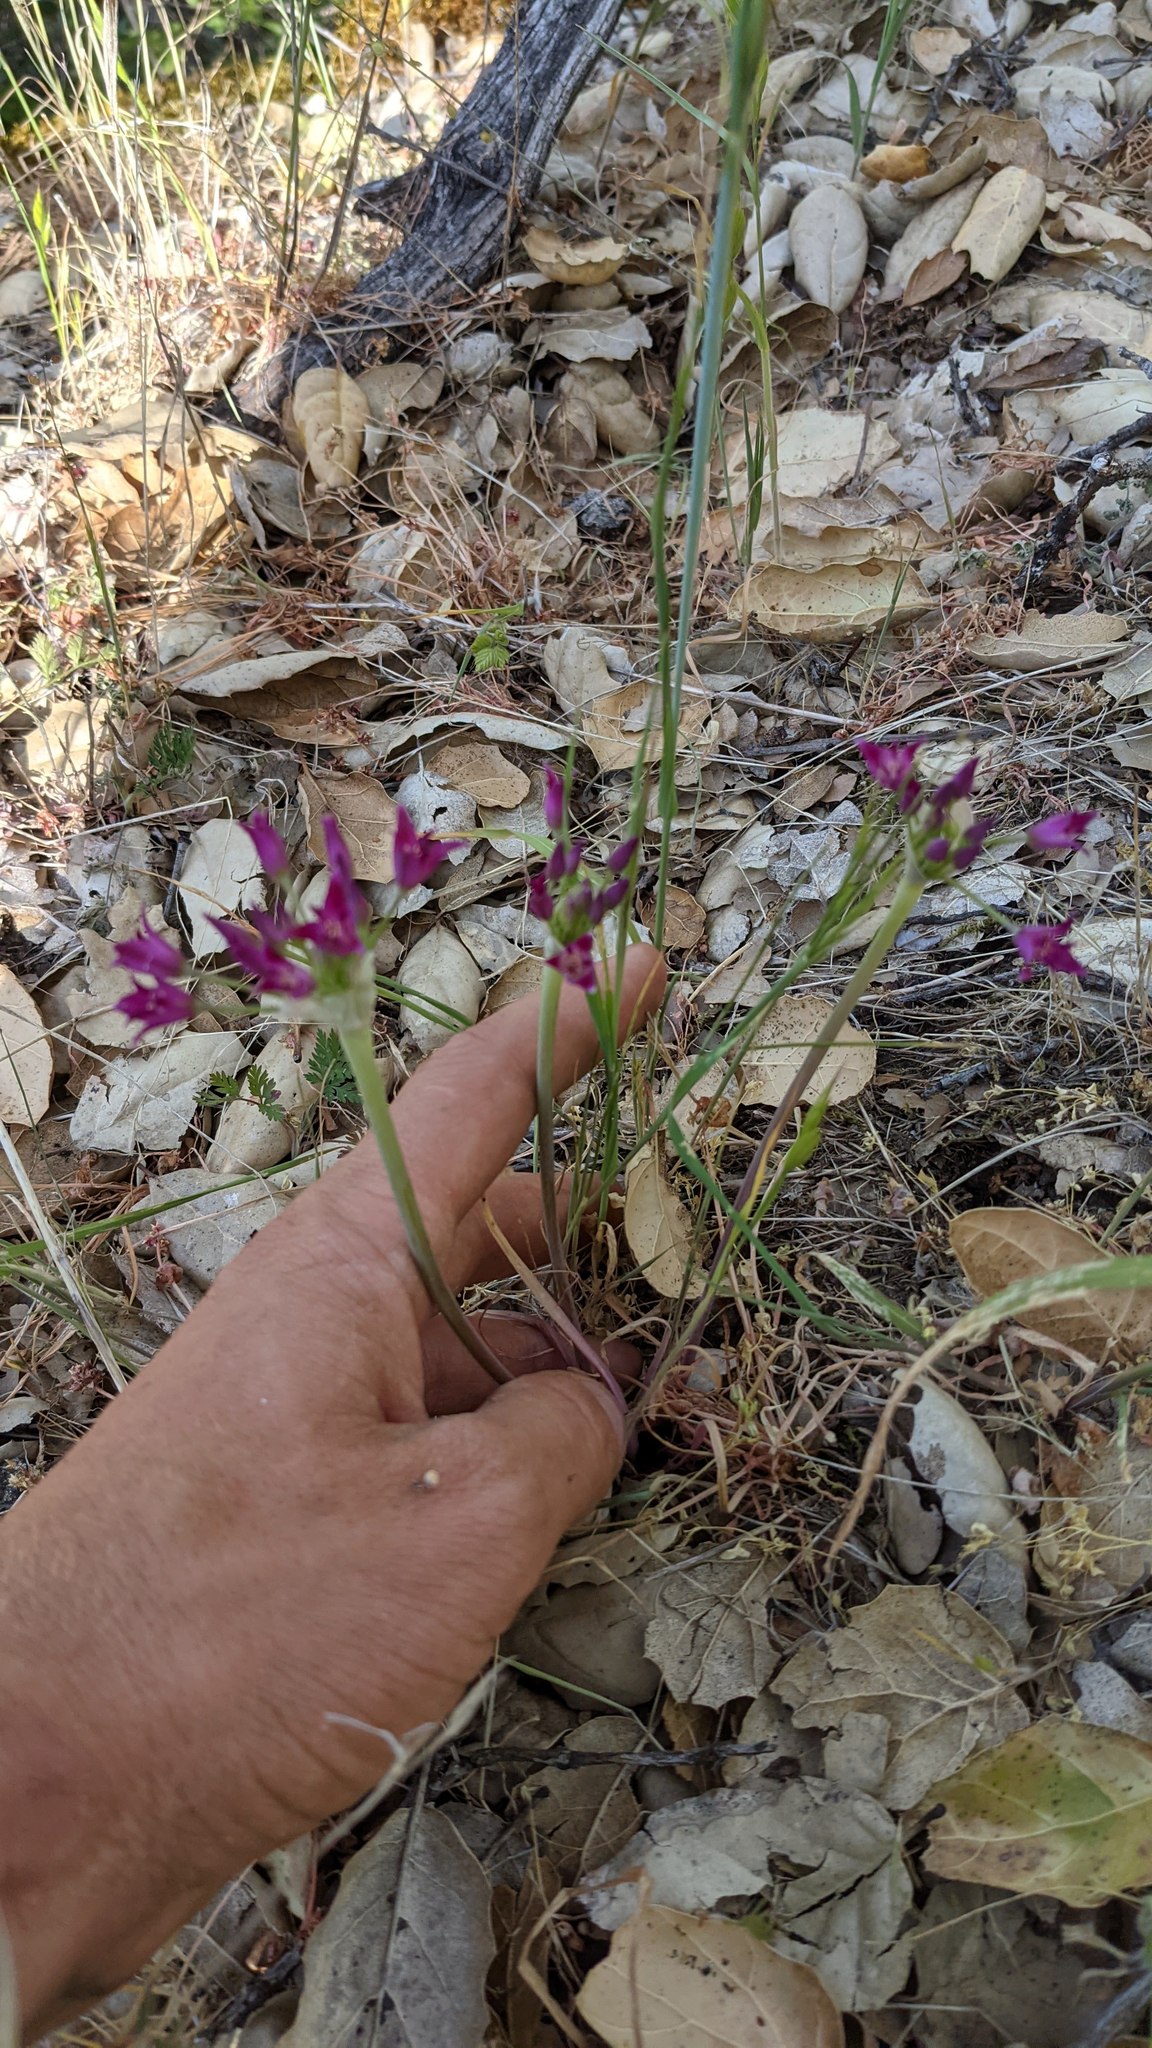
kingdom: Plantae
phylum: Tracheophyta
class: Liliopsida
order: Asparagales
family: Amaryllidaceae
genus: Allium
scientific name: Allium crispum
